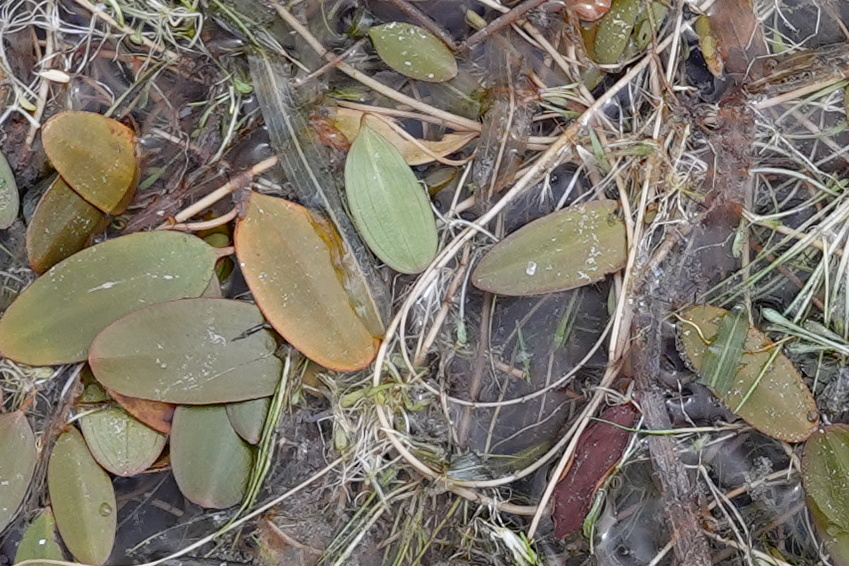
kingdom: Plantae
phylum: Tracheophyta
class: Liliopsida
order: Alismatales
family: Potamogetonaceae
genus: Potamogeton
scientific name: Potamogeton cheesemanii
